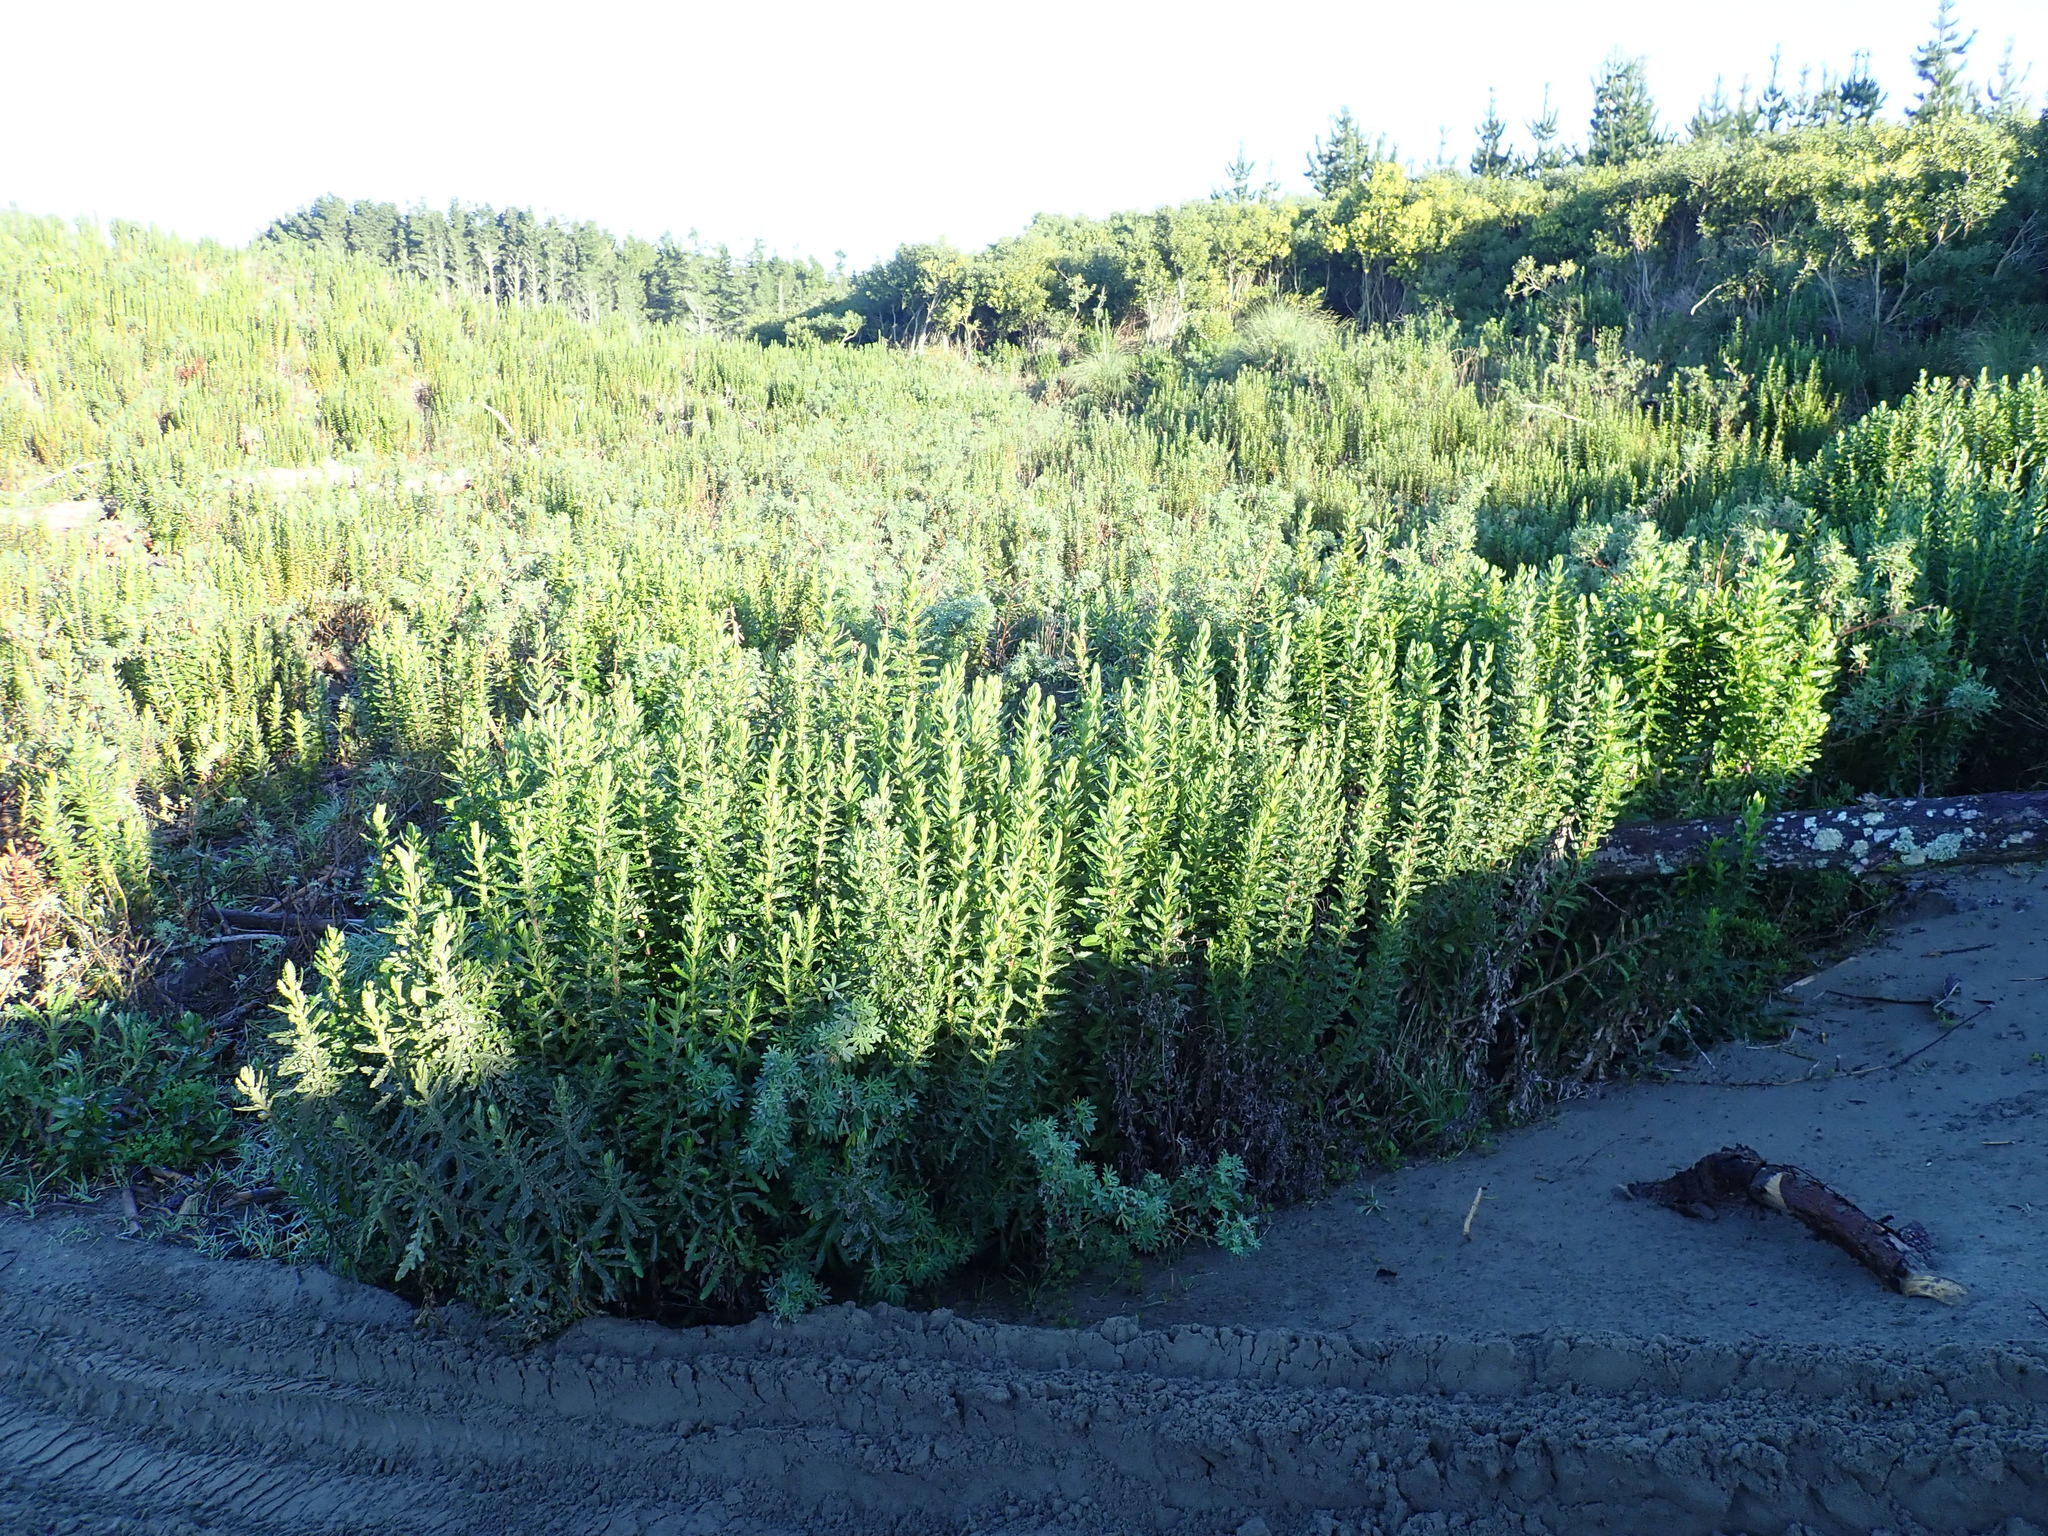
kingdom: Plantae
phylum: Tracheophyta
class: Magnoliopsida
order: Asterales
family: Asteraceae
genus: Senecio
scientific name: Senecio glastifolius
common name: Woad-leaved ragwort
